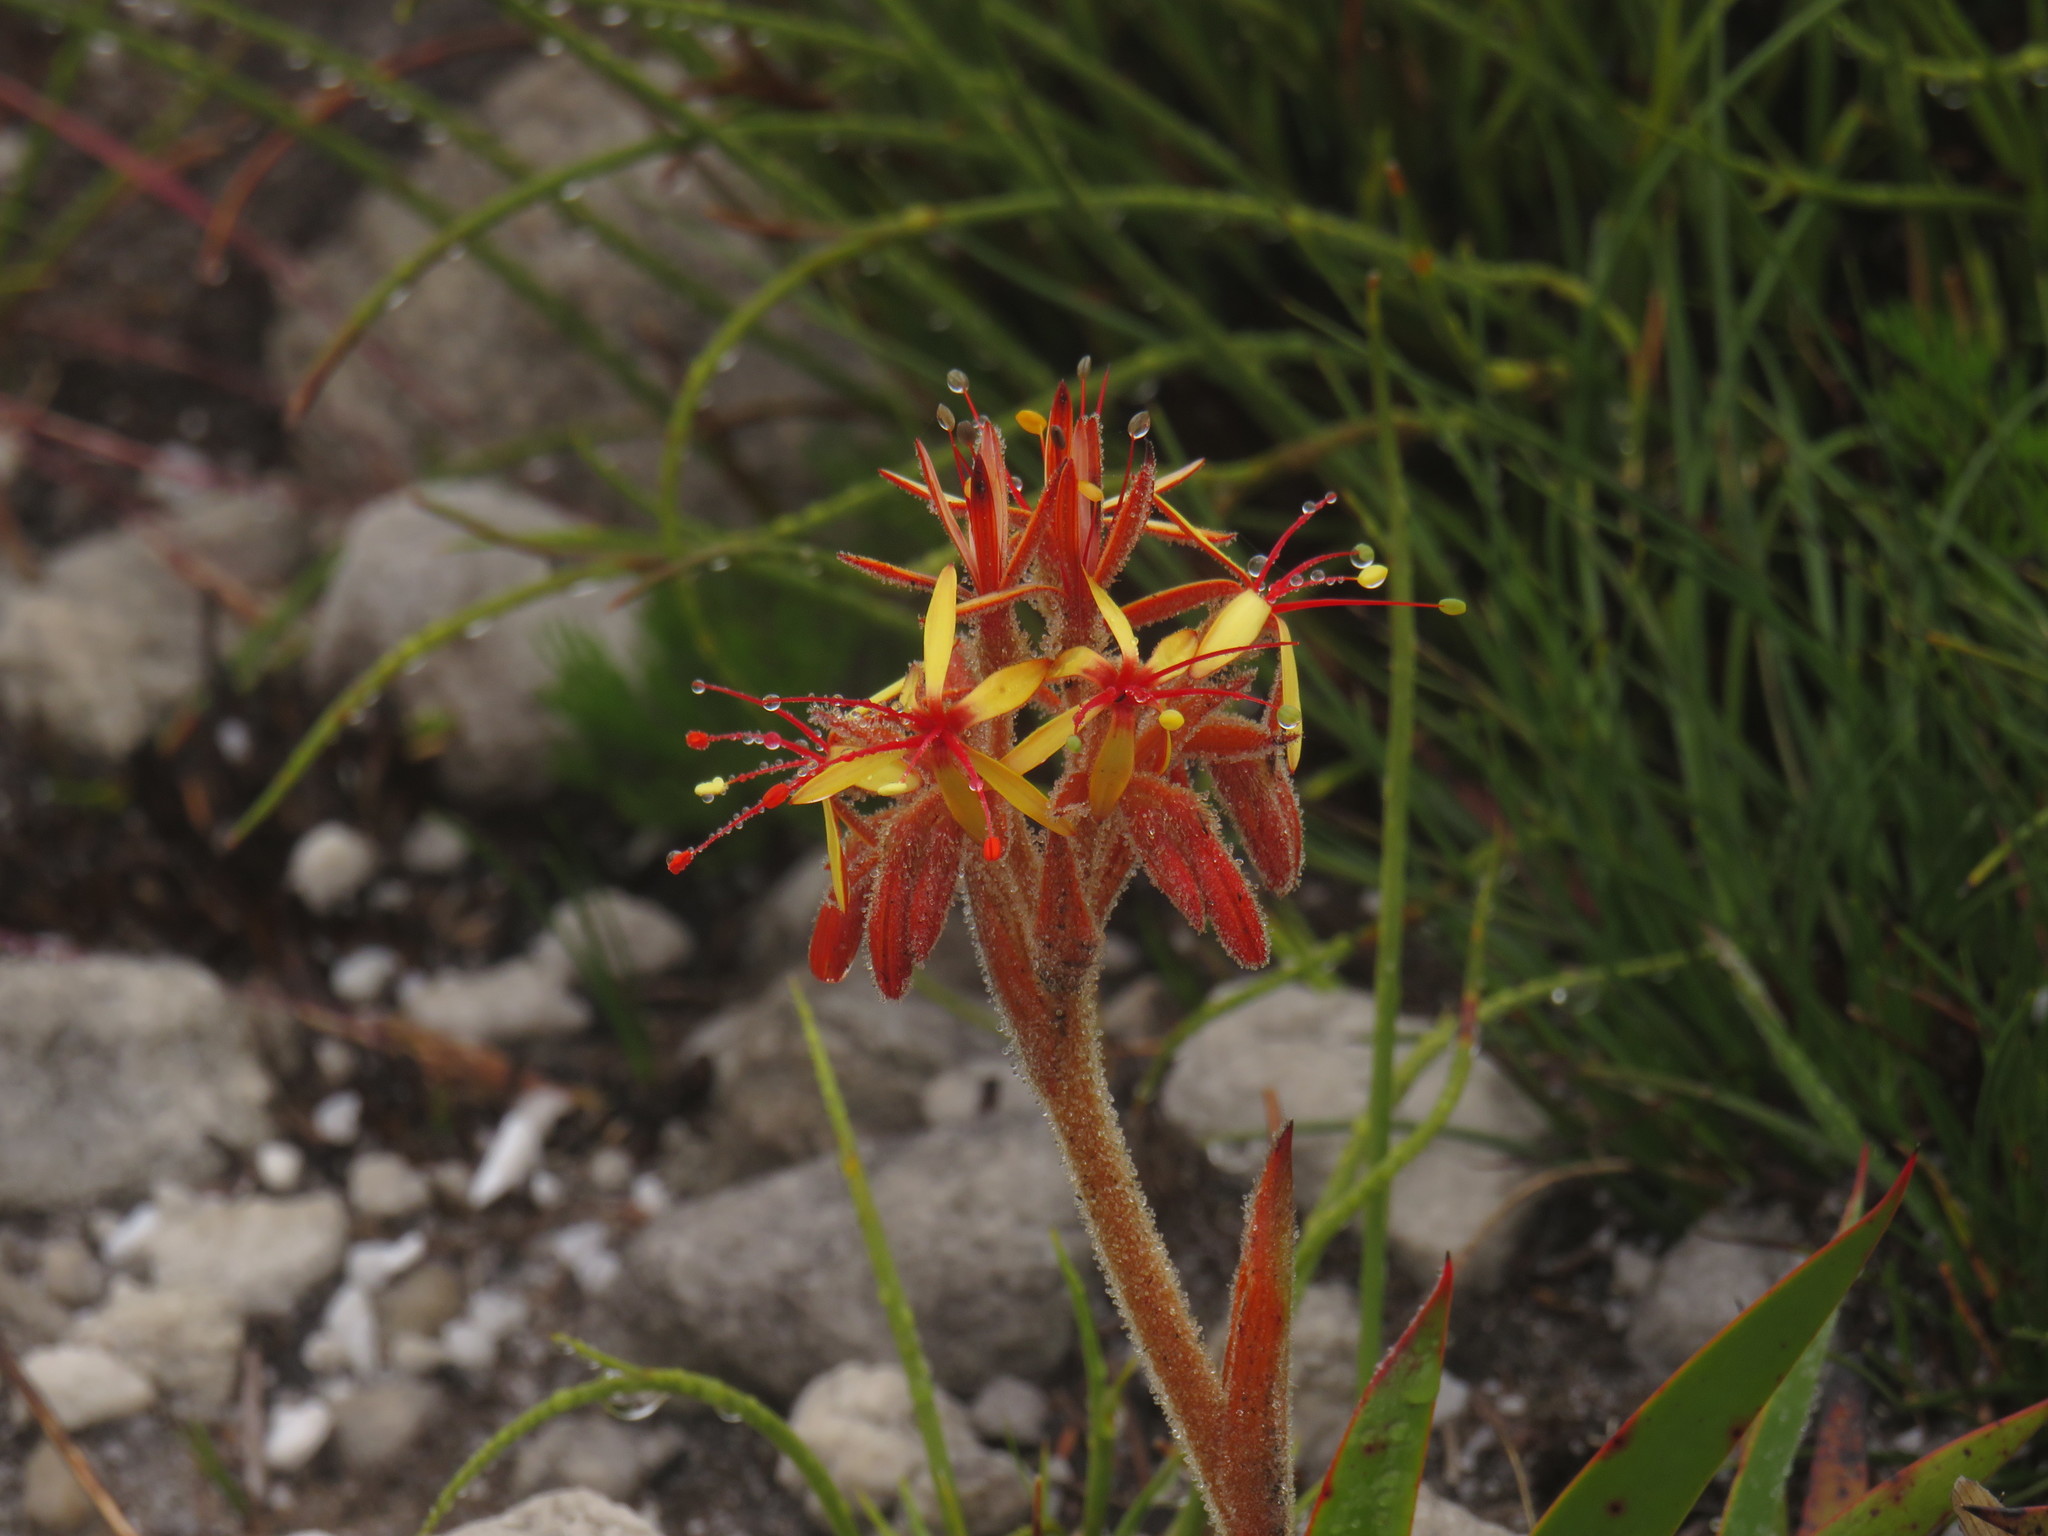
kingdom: Plantae
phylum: Tracheophyta
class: Liliopsida
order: Commelinales
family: Haemodoraceae
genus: Dilatris
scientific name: Dilatris viscosa
